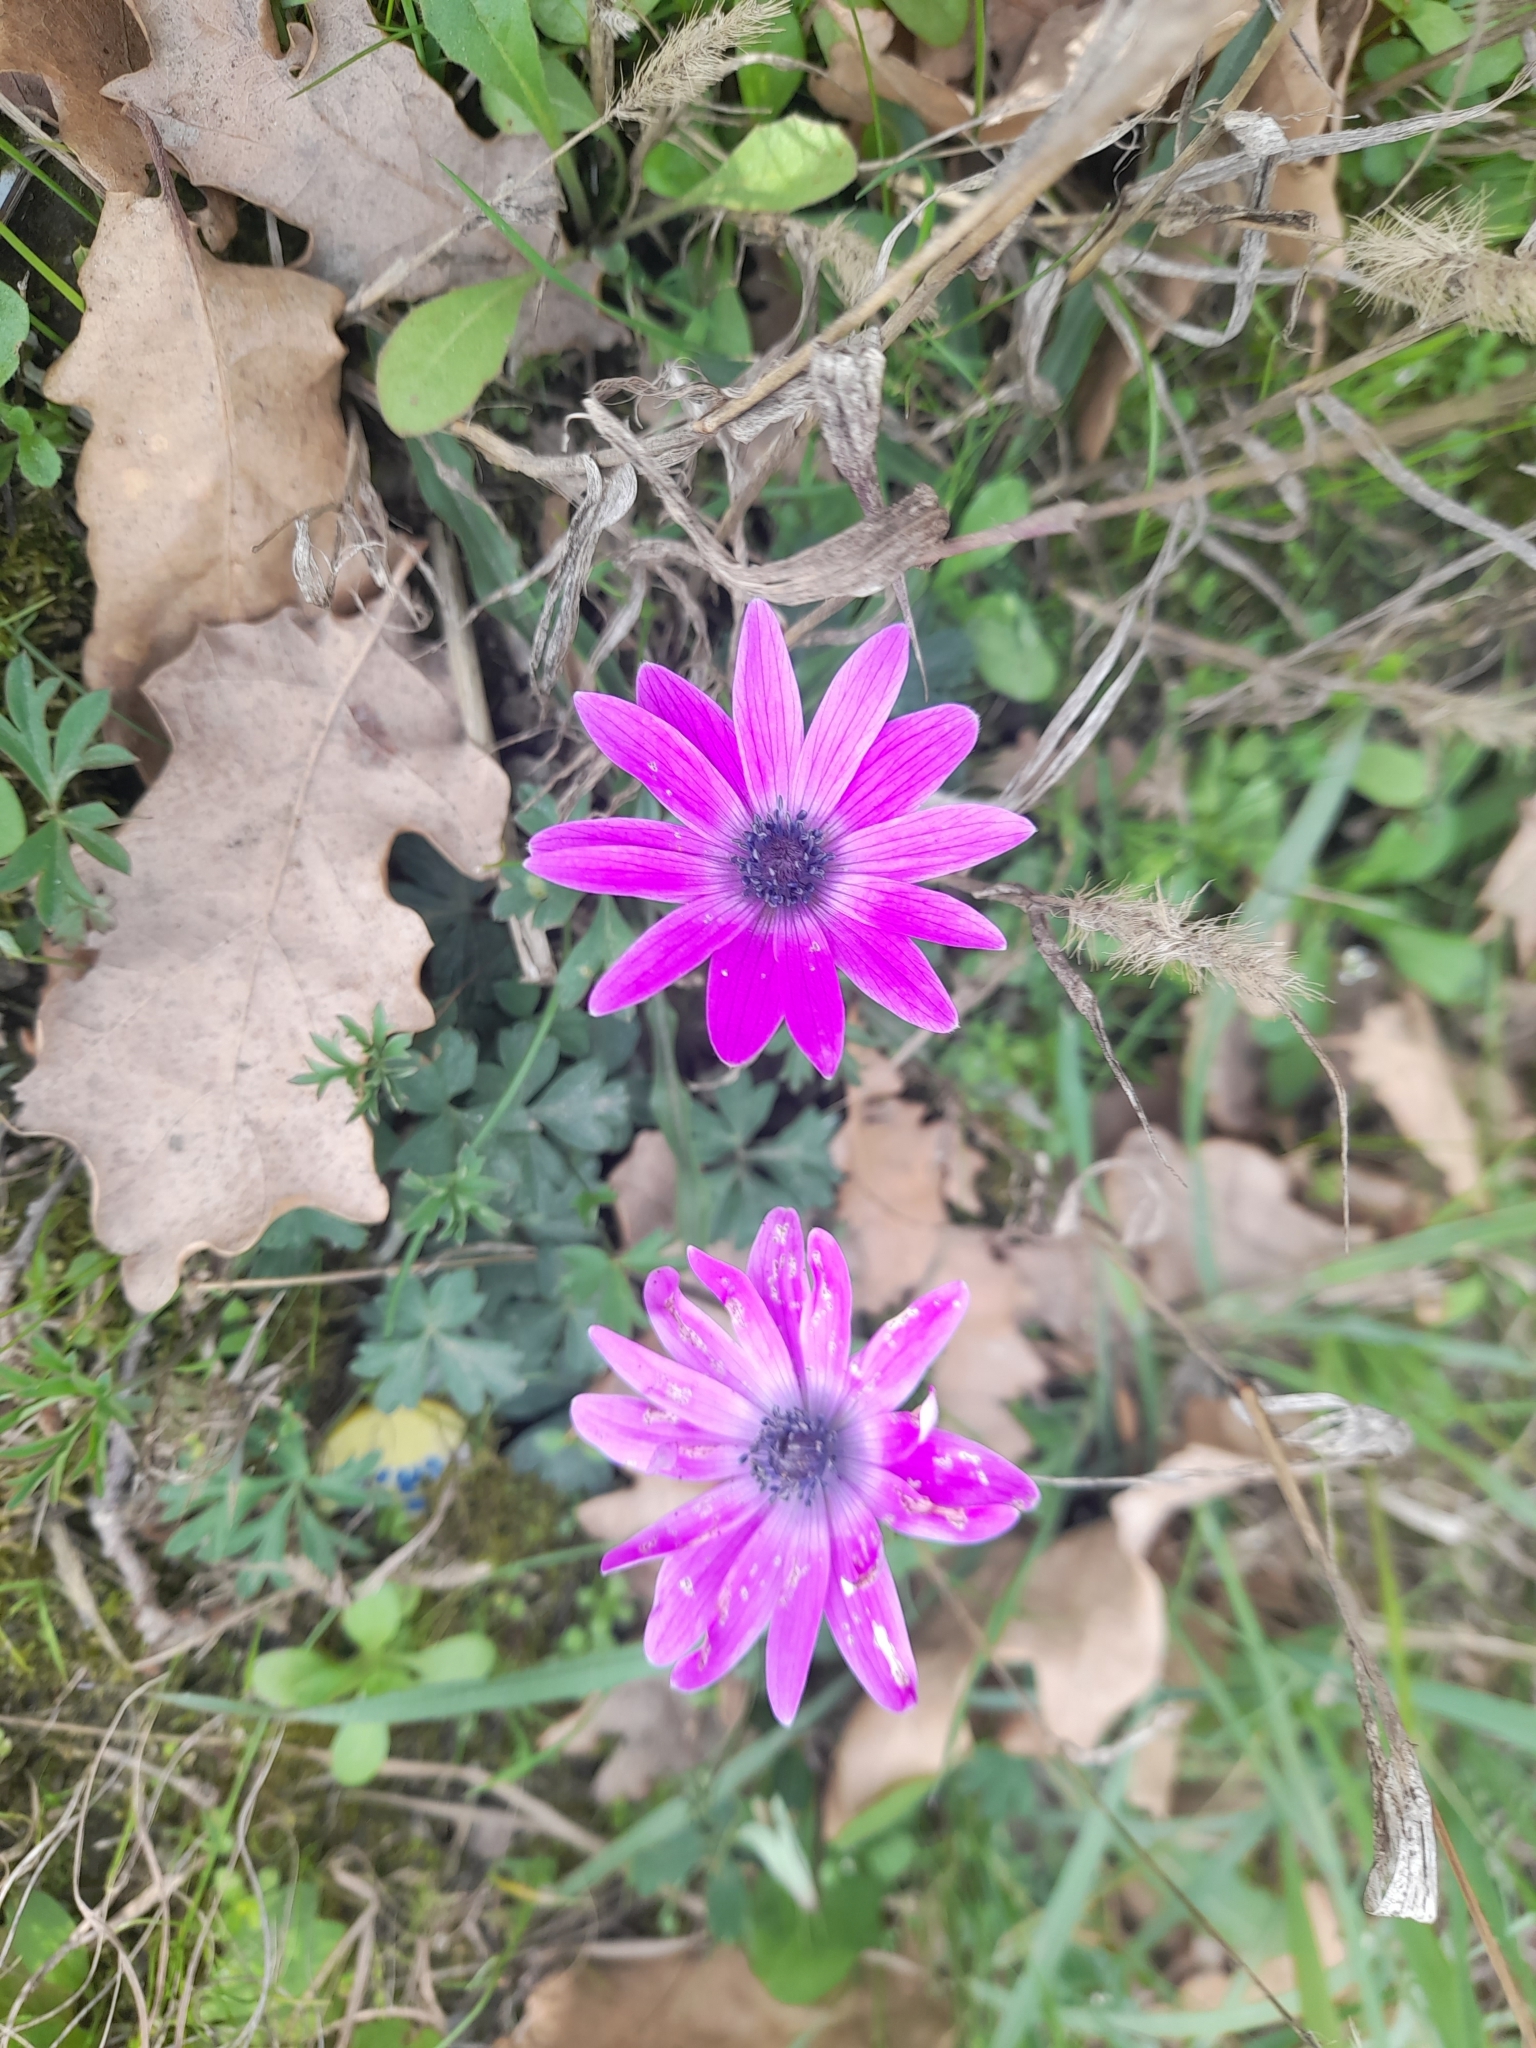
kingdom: Plantae
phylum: Tracheophyta
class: Magnoliopsida
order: Ranunculales
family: Ranunculaceae
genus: Anemone
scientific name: Anemone hortensis
